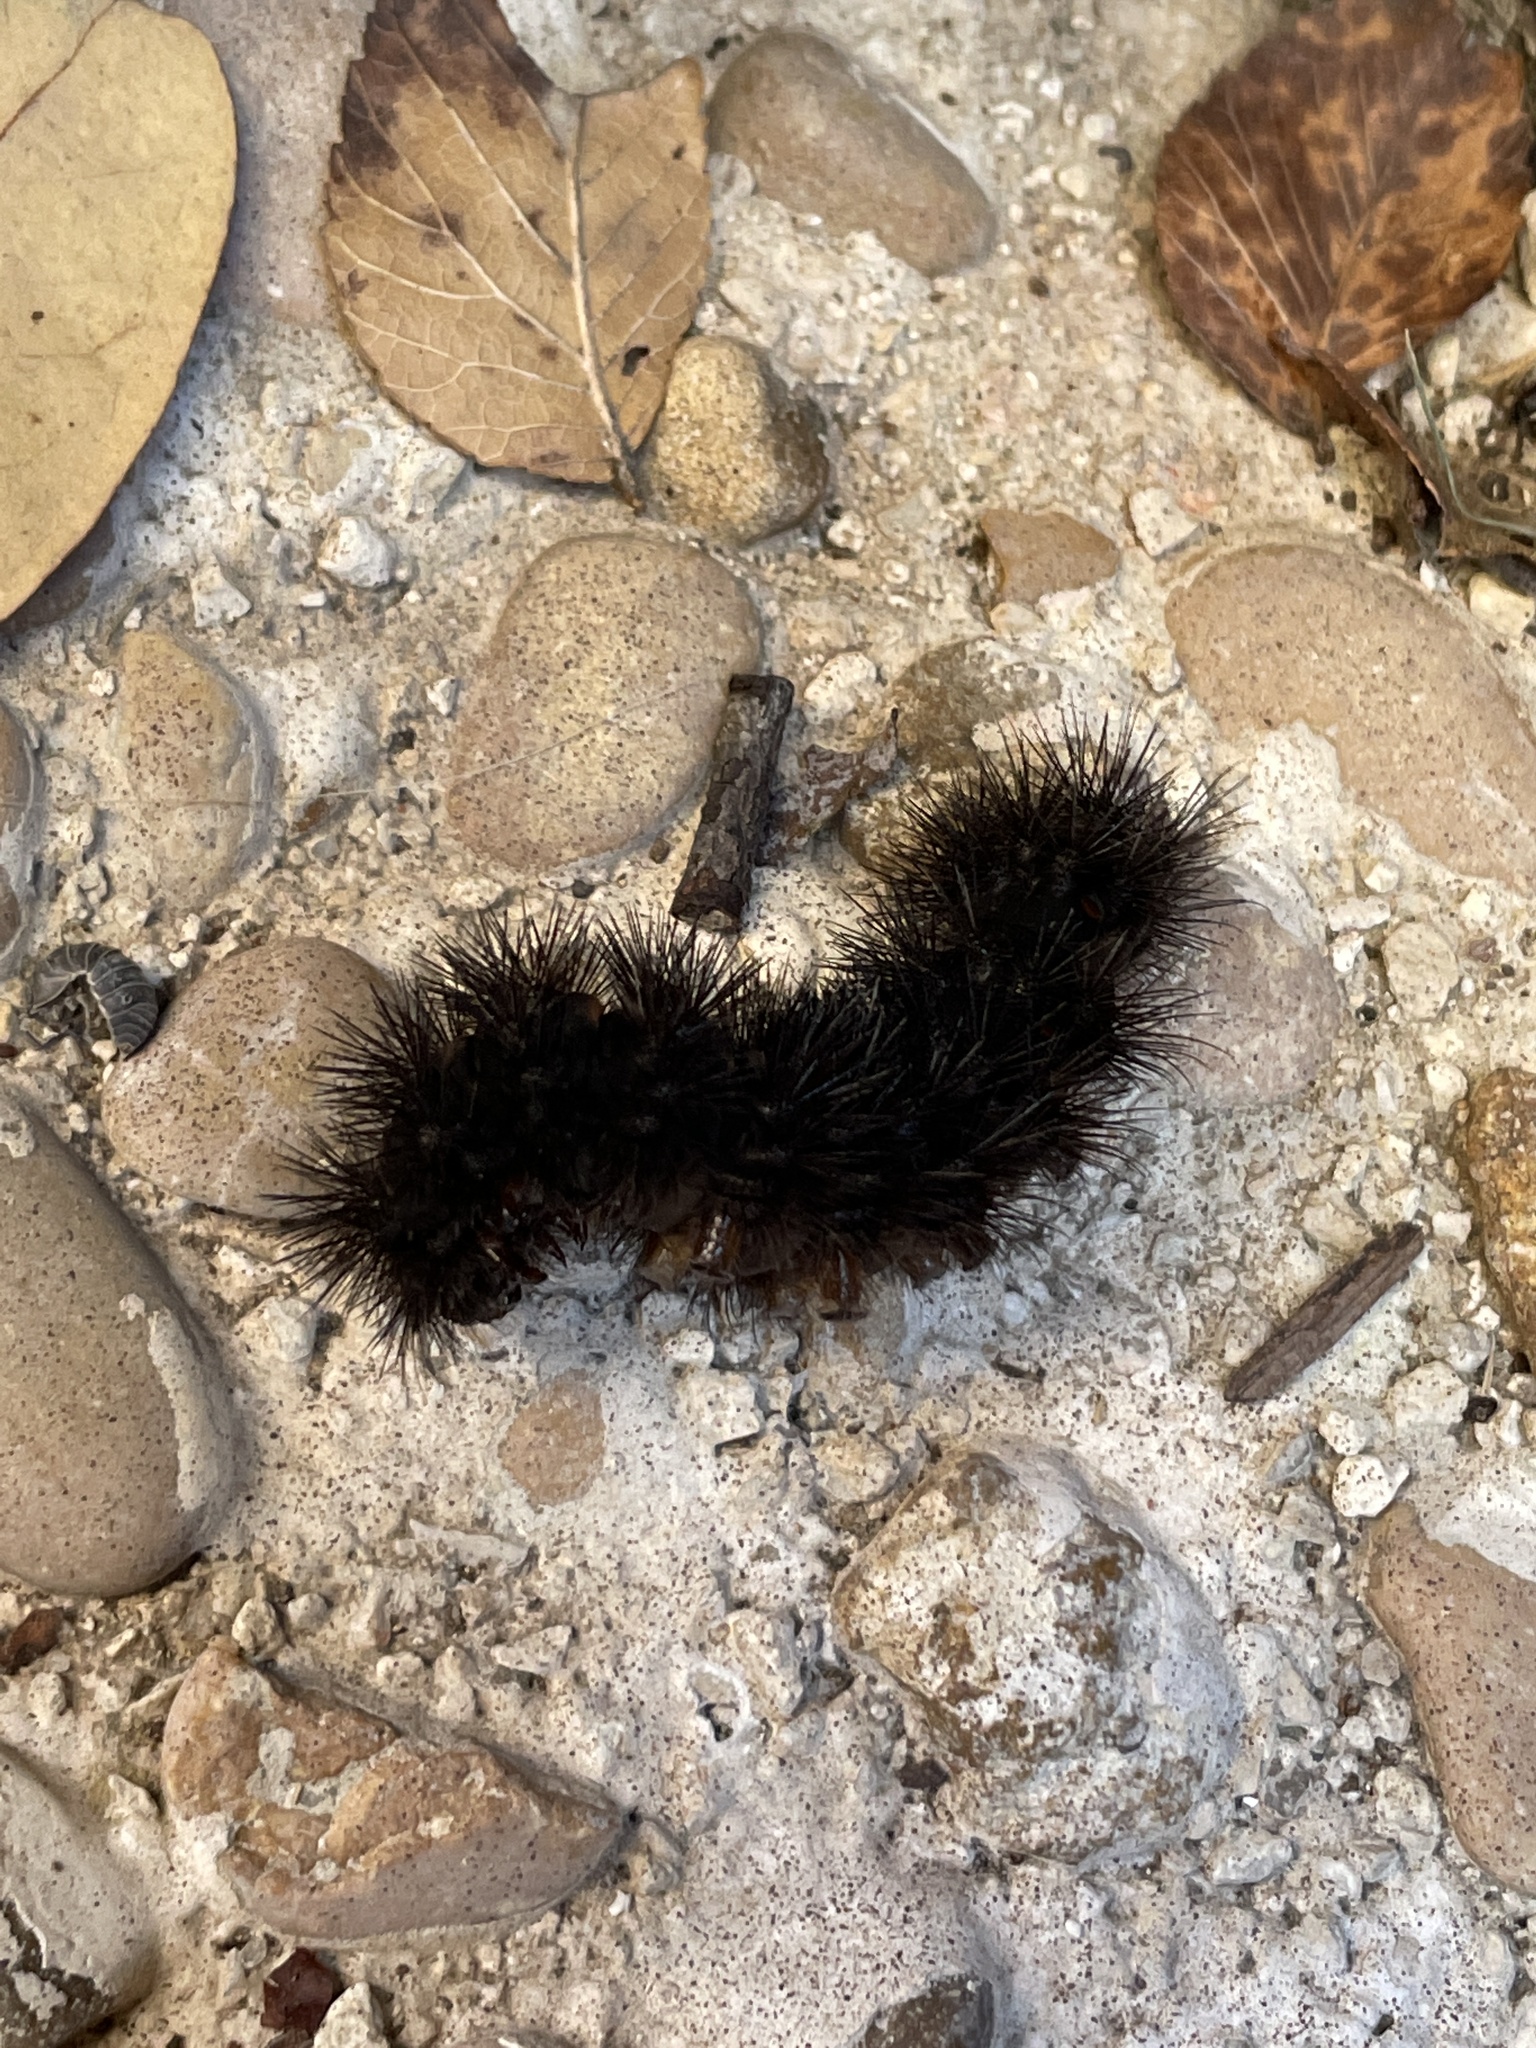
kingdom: Animalia
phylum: Arthropoda
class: Insecta
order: Lepidoptera
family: Erebidae
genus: Hypercompe
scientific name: Hypercompe scribonia
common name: Giant leopard moth
